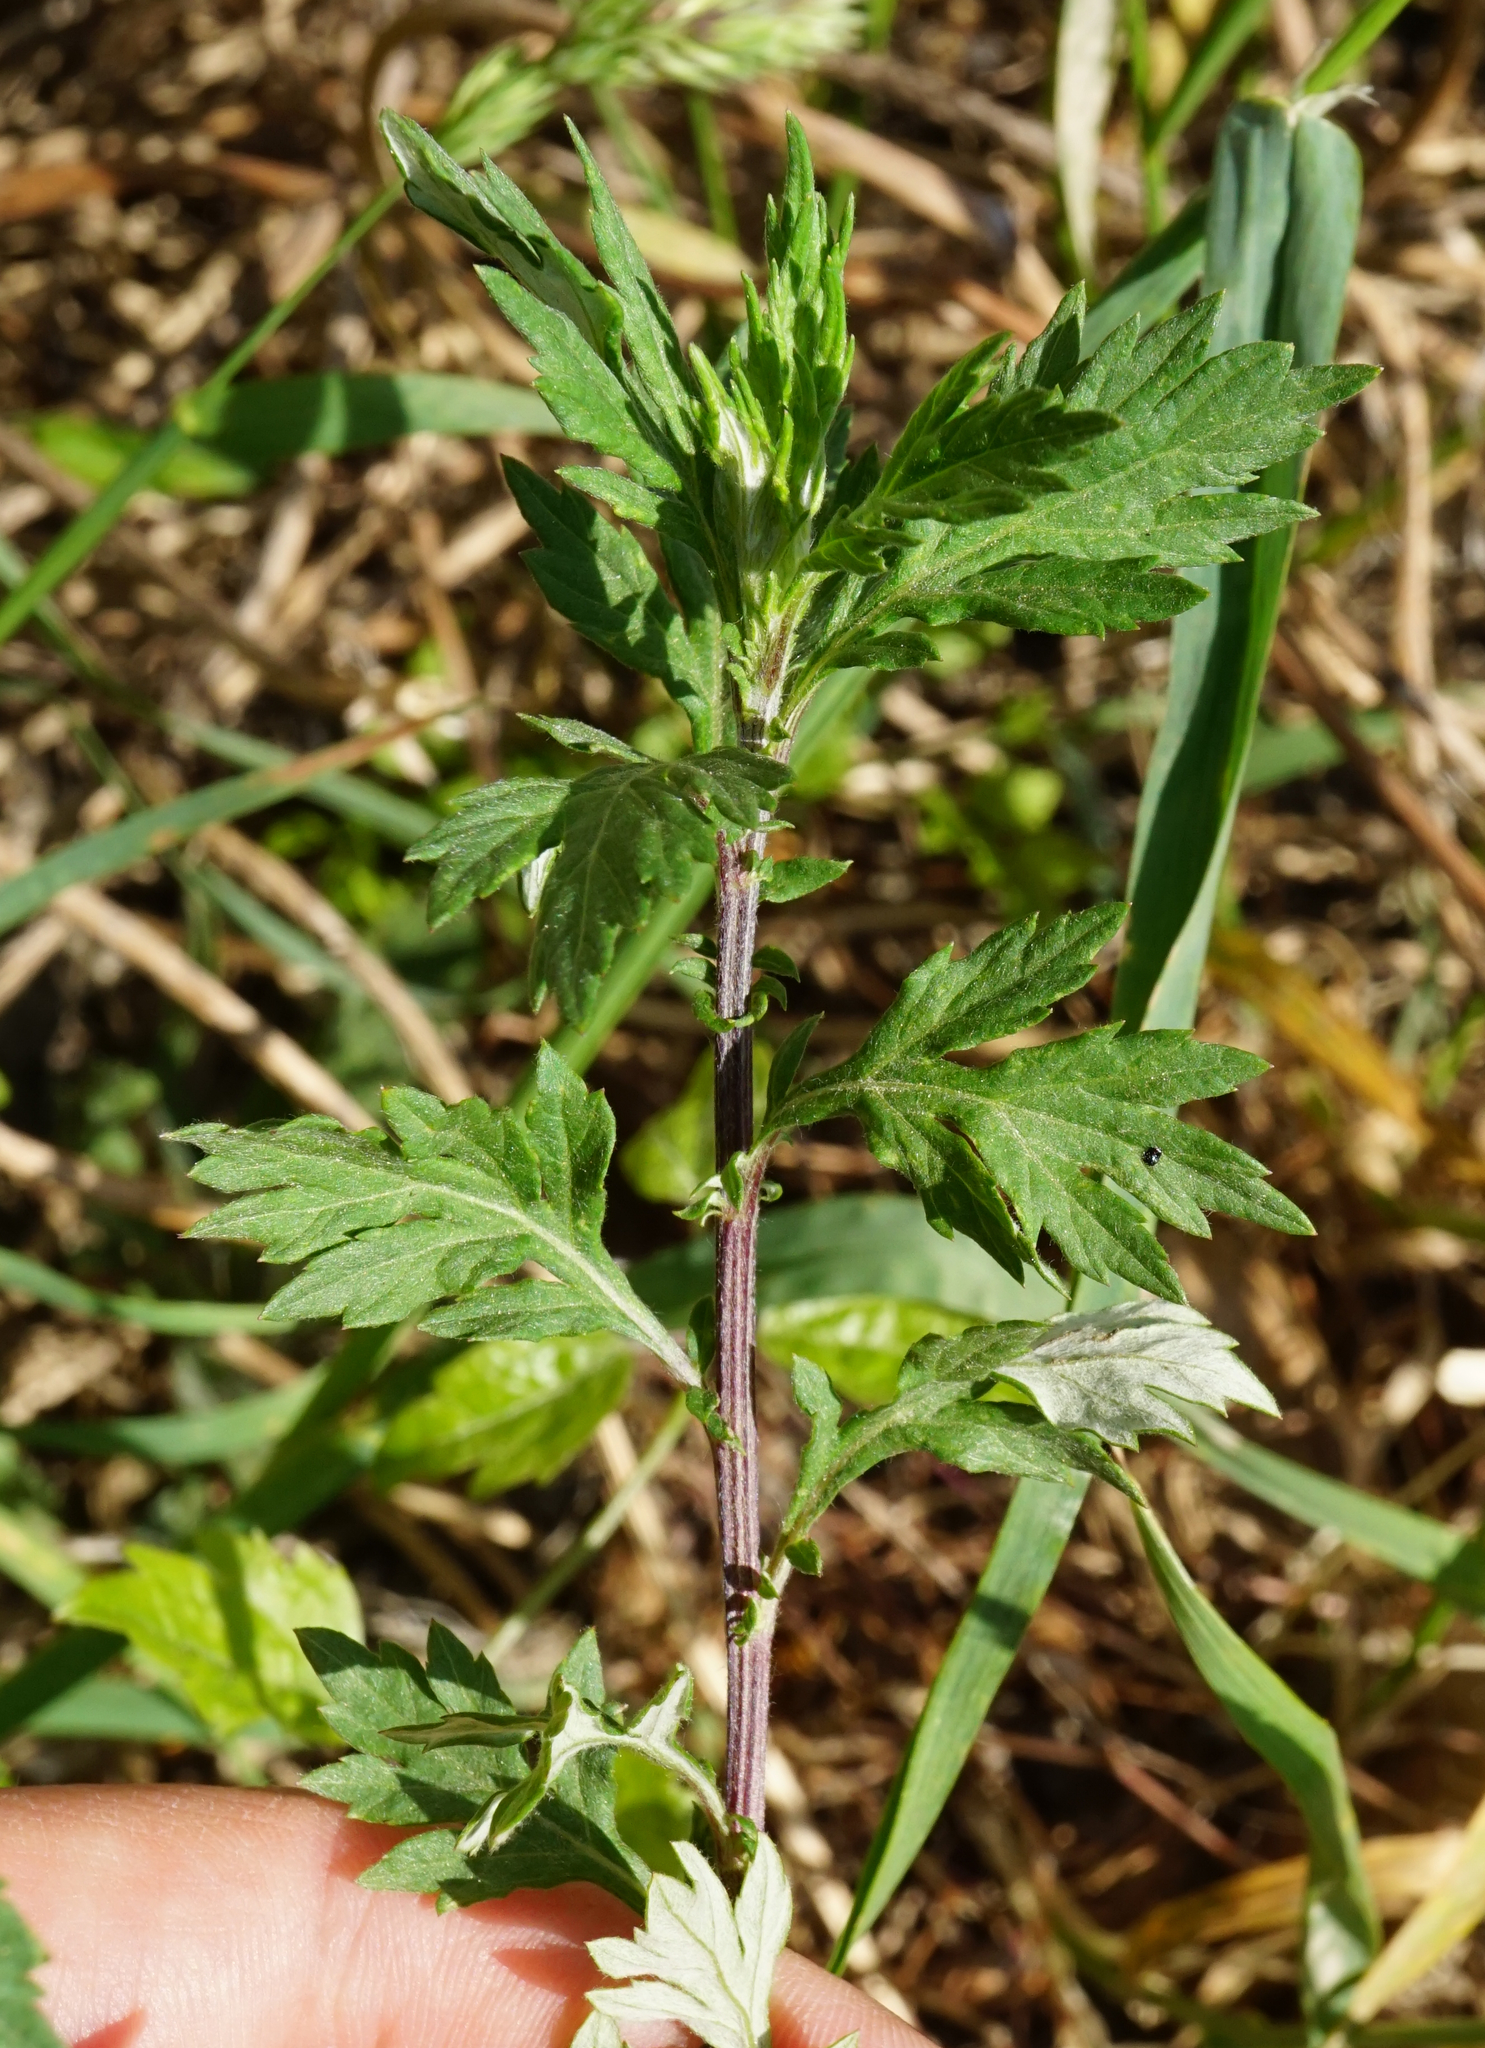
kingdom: Plantae
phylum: Tracheophyta
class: Magnoliopsida
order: Asterales
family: Asteraceae
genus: Artemisia
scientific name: Artemisia vulgaris
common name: Mugwort
